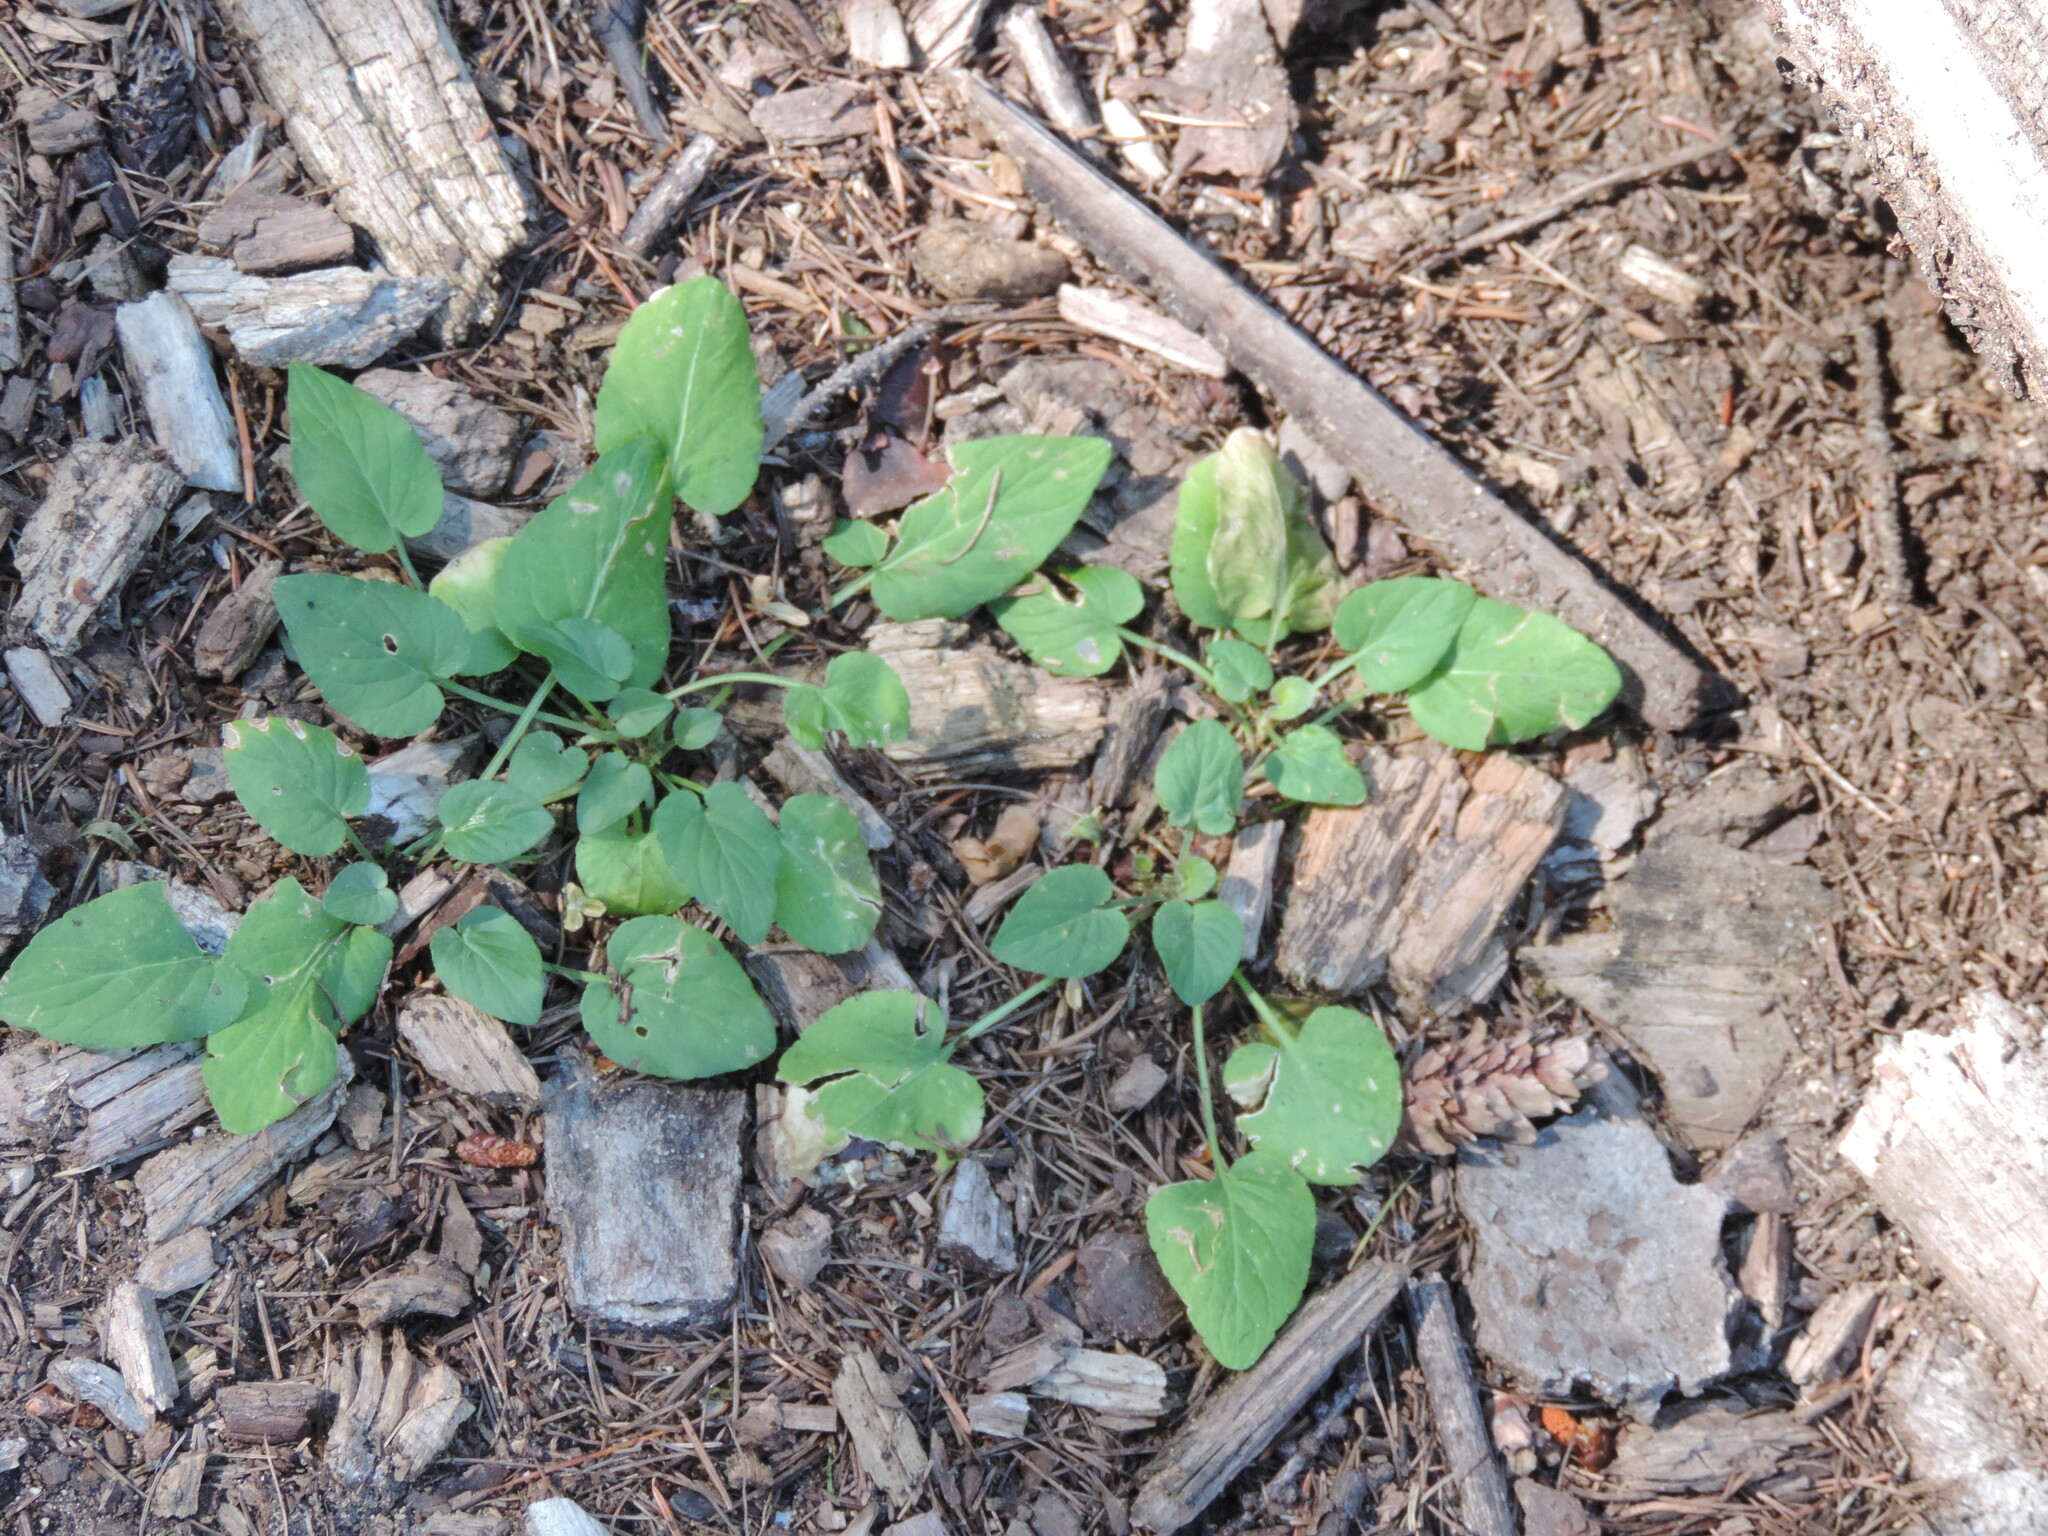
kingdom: Plantae
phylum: Tracheophyta
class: Magnoliopsida
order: Malpighiales
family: Violaceae
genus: Viola
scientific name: Viola adunca
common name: Sand violet
